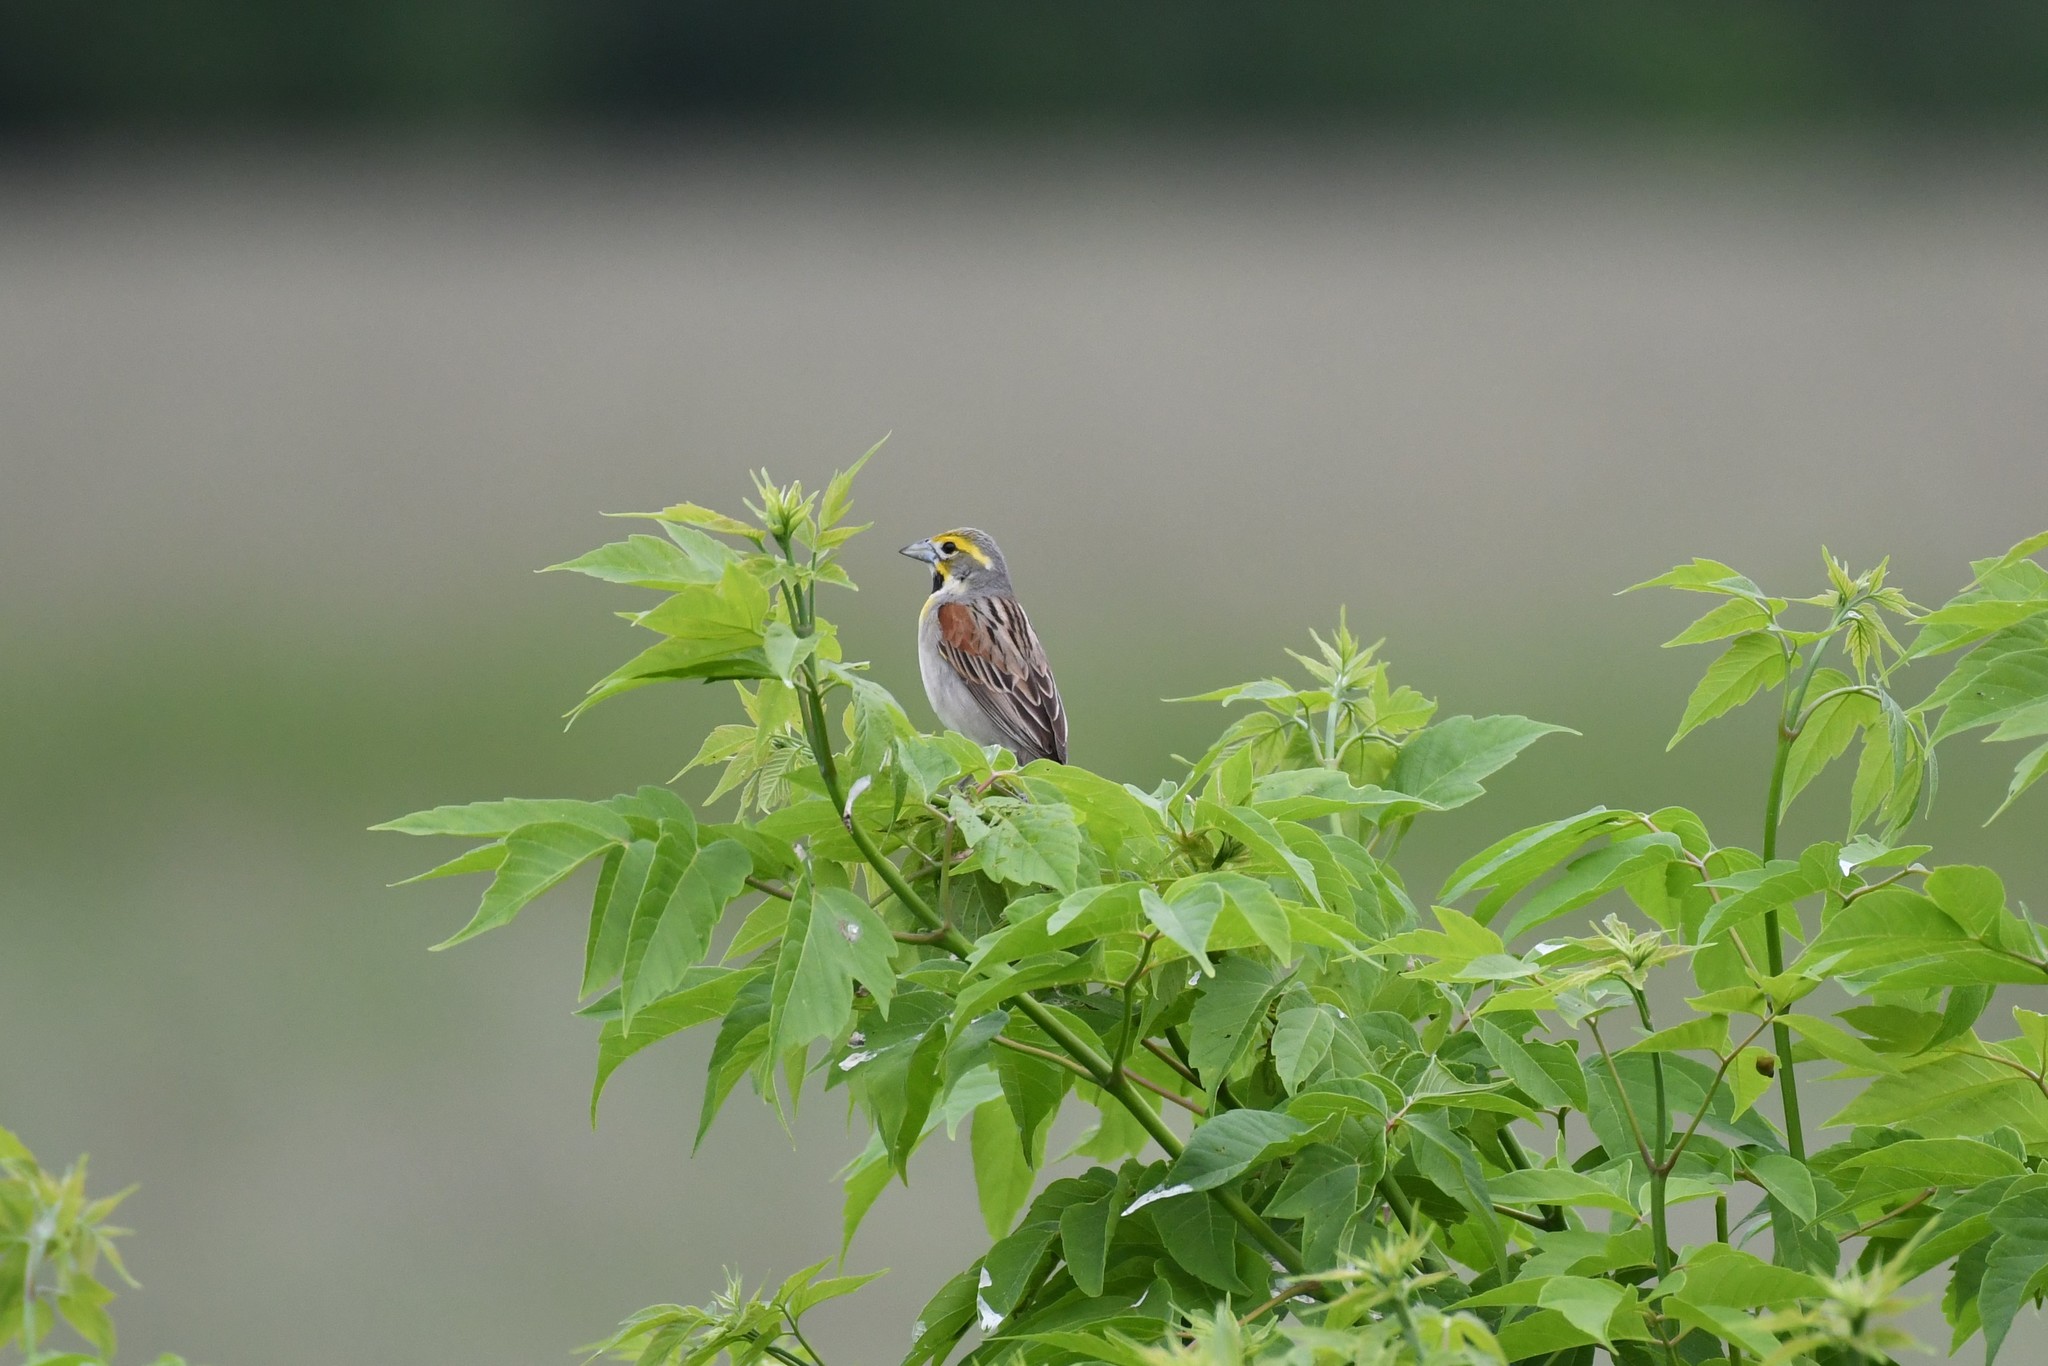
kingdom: Animalia
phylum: Chordata
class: Aves
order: Passeriformes
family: Cardinalidae
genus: Spiza
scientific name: Spiza americana
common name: Dickcissel
